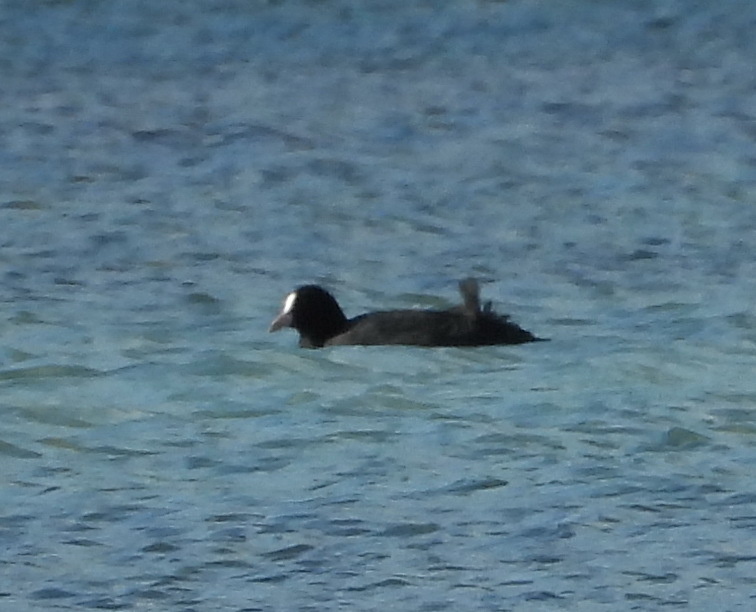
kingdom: Animalia
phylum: Chordata
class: Aves
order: Gruiformes
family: Rallidae
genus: Fulica
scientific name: Fulica atra
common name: Eurasian coot
